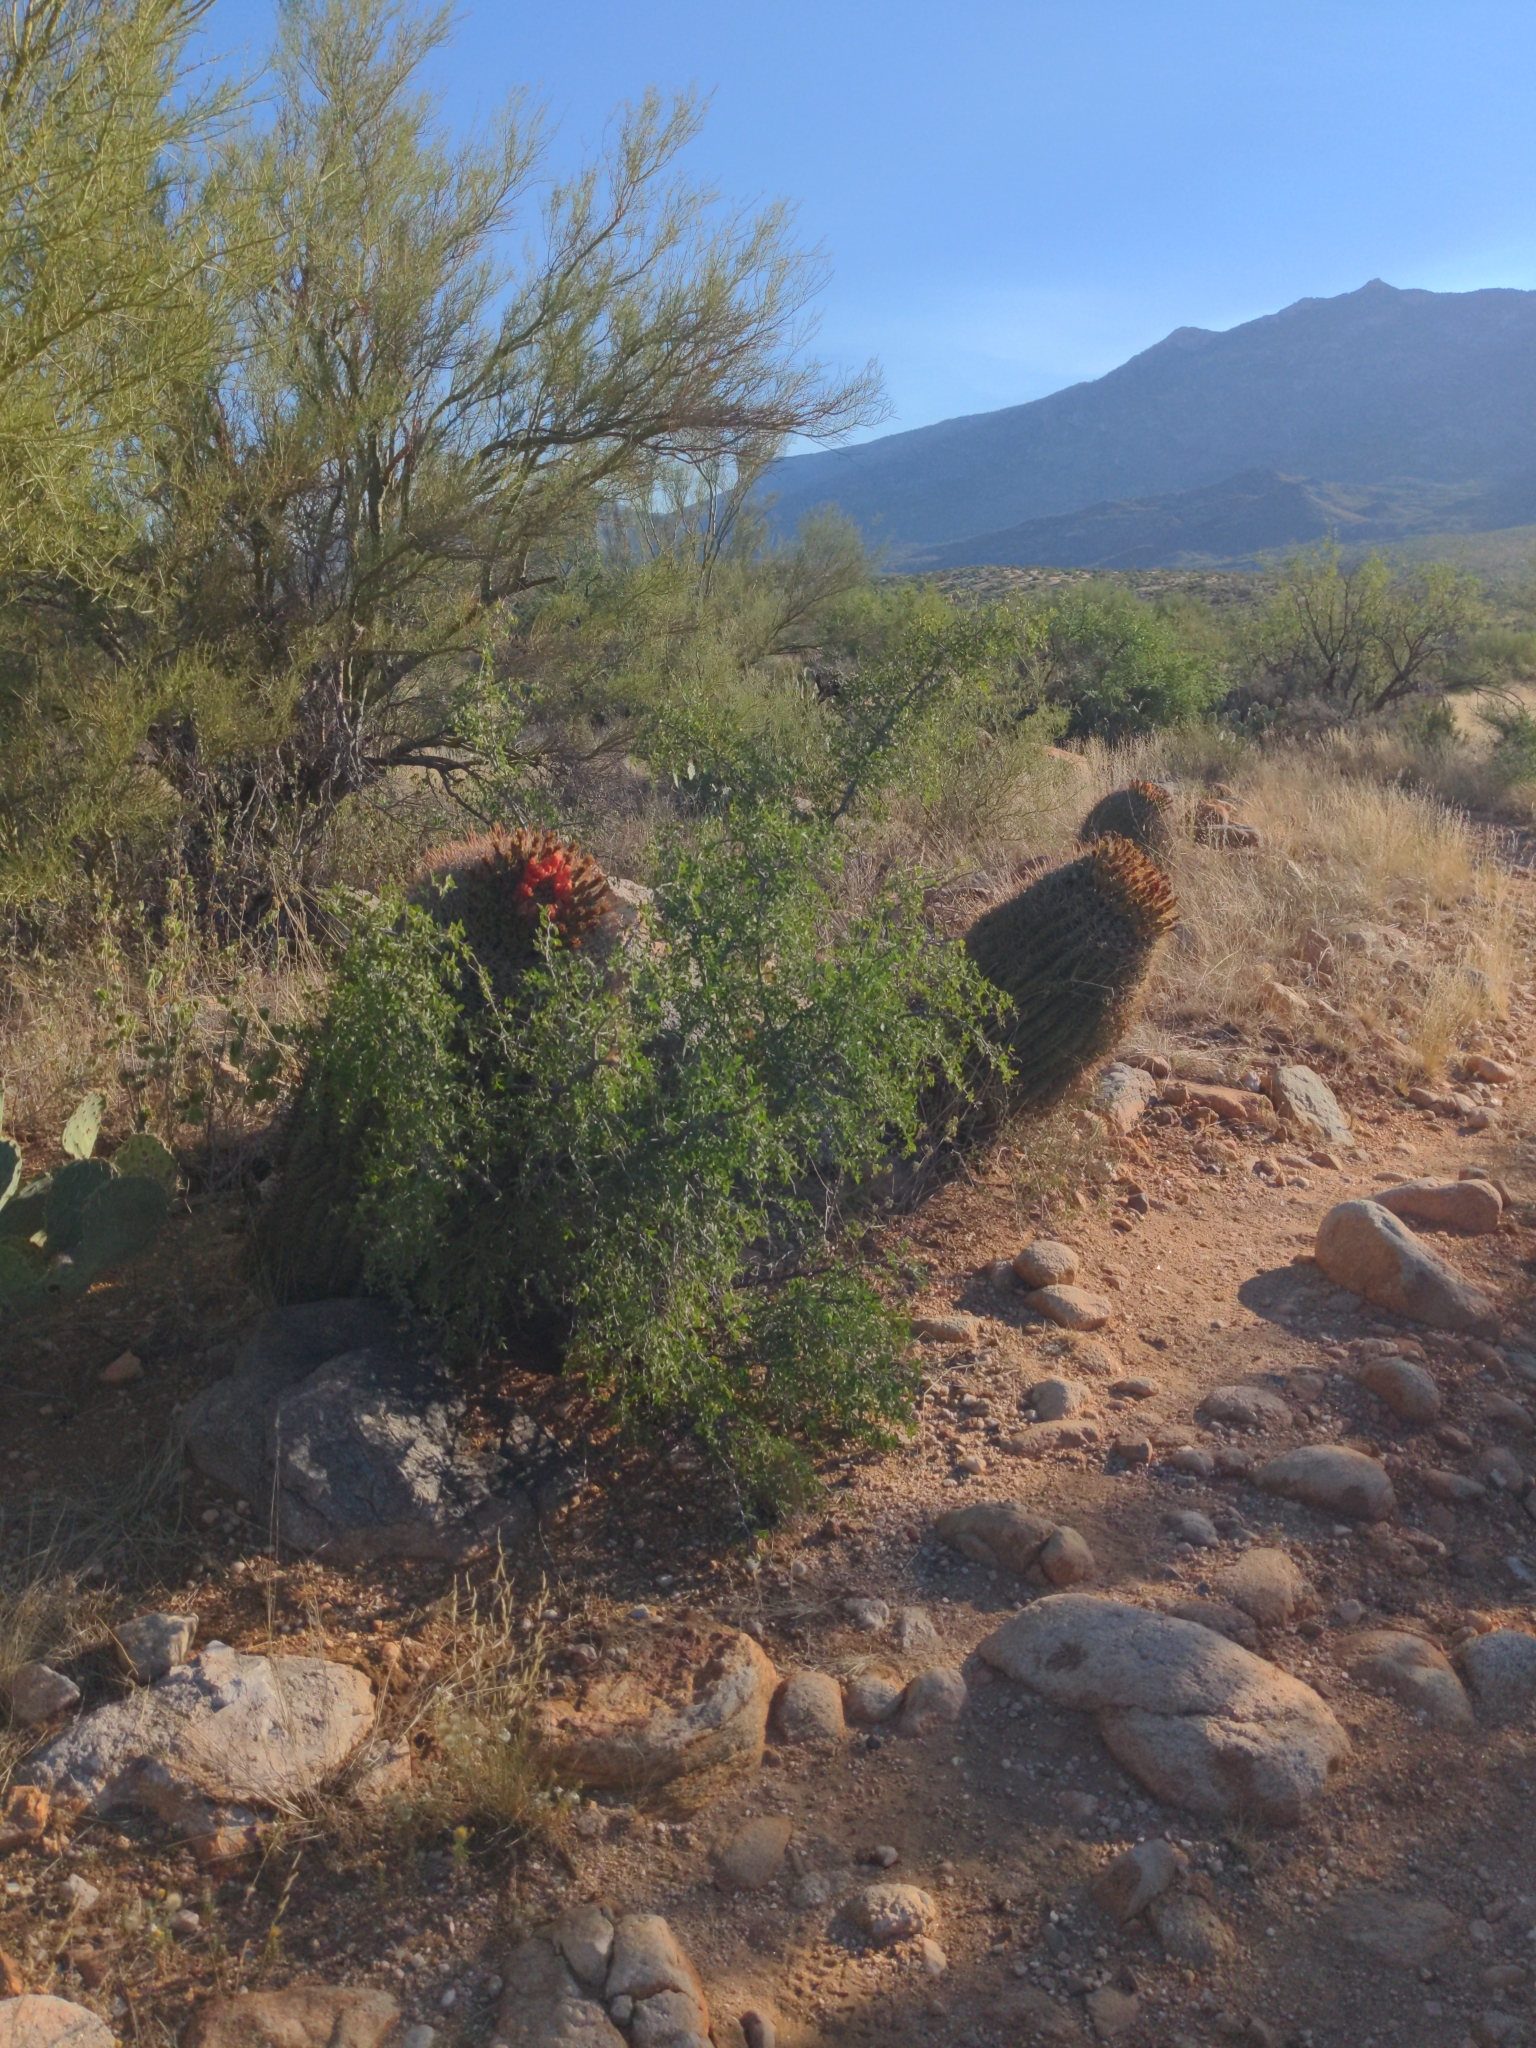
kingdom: Plantae
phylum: Tracheophyta
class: Magnoliopsida
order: Caryophyllales
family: Cactaceae
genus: Ferocactus
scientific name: Ferocactus wislizeni
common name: Candy barrel cactus
